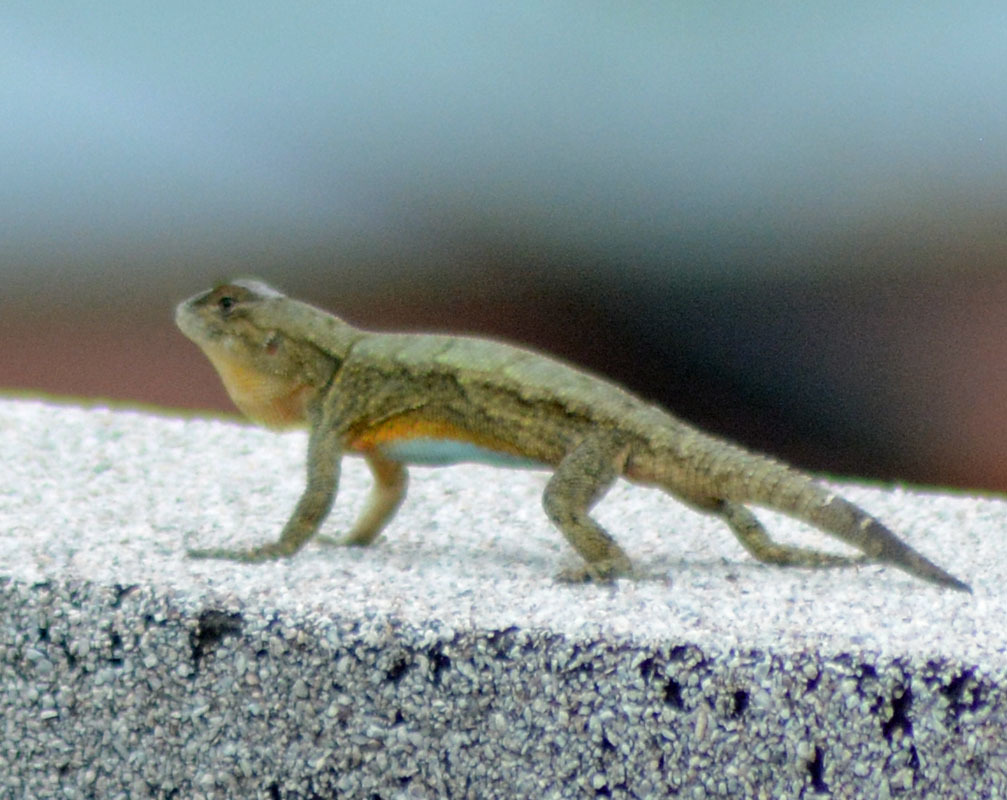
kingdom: Animalia
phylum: Chordata
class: Squamata
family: Phrynosomatidae
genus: Sceloporus
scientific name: Sceloporus grammicus
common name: Mesquite lizard
